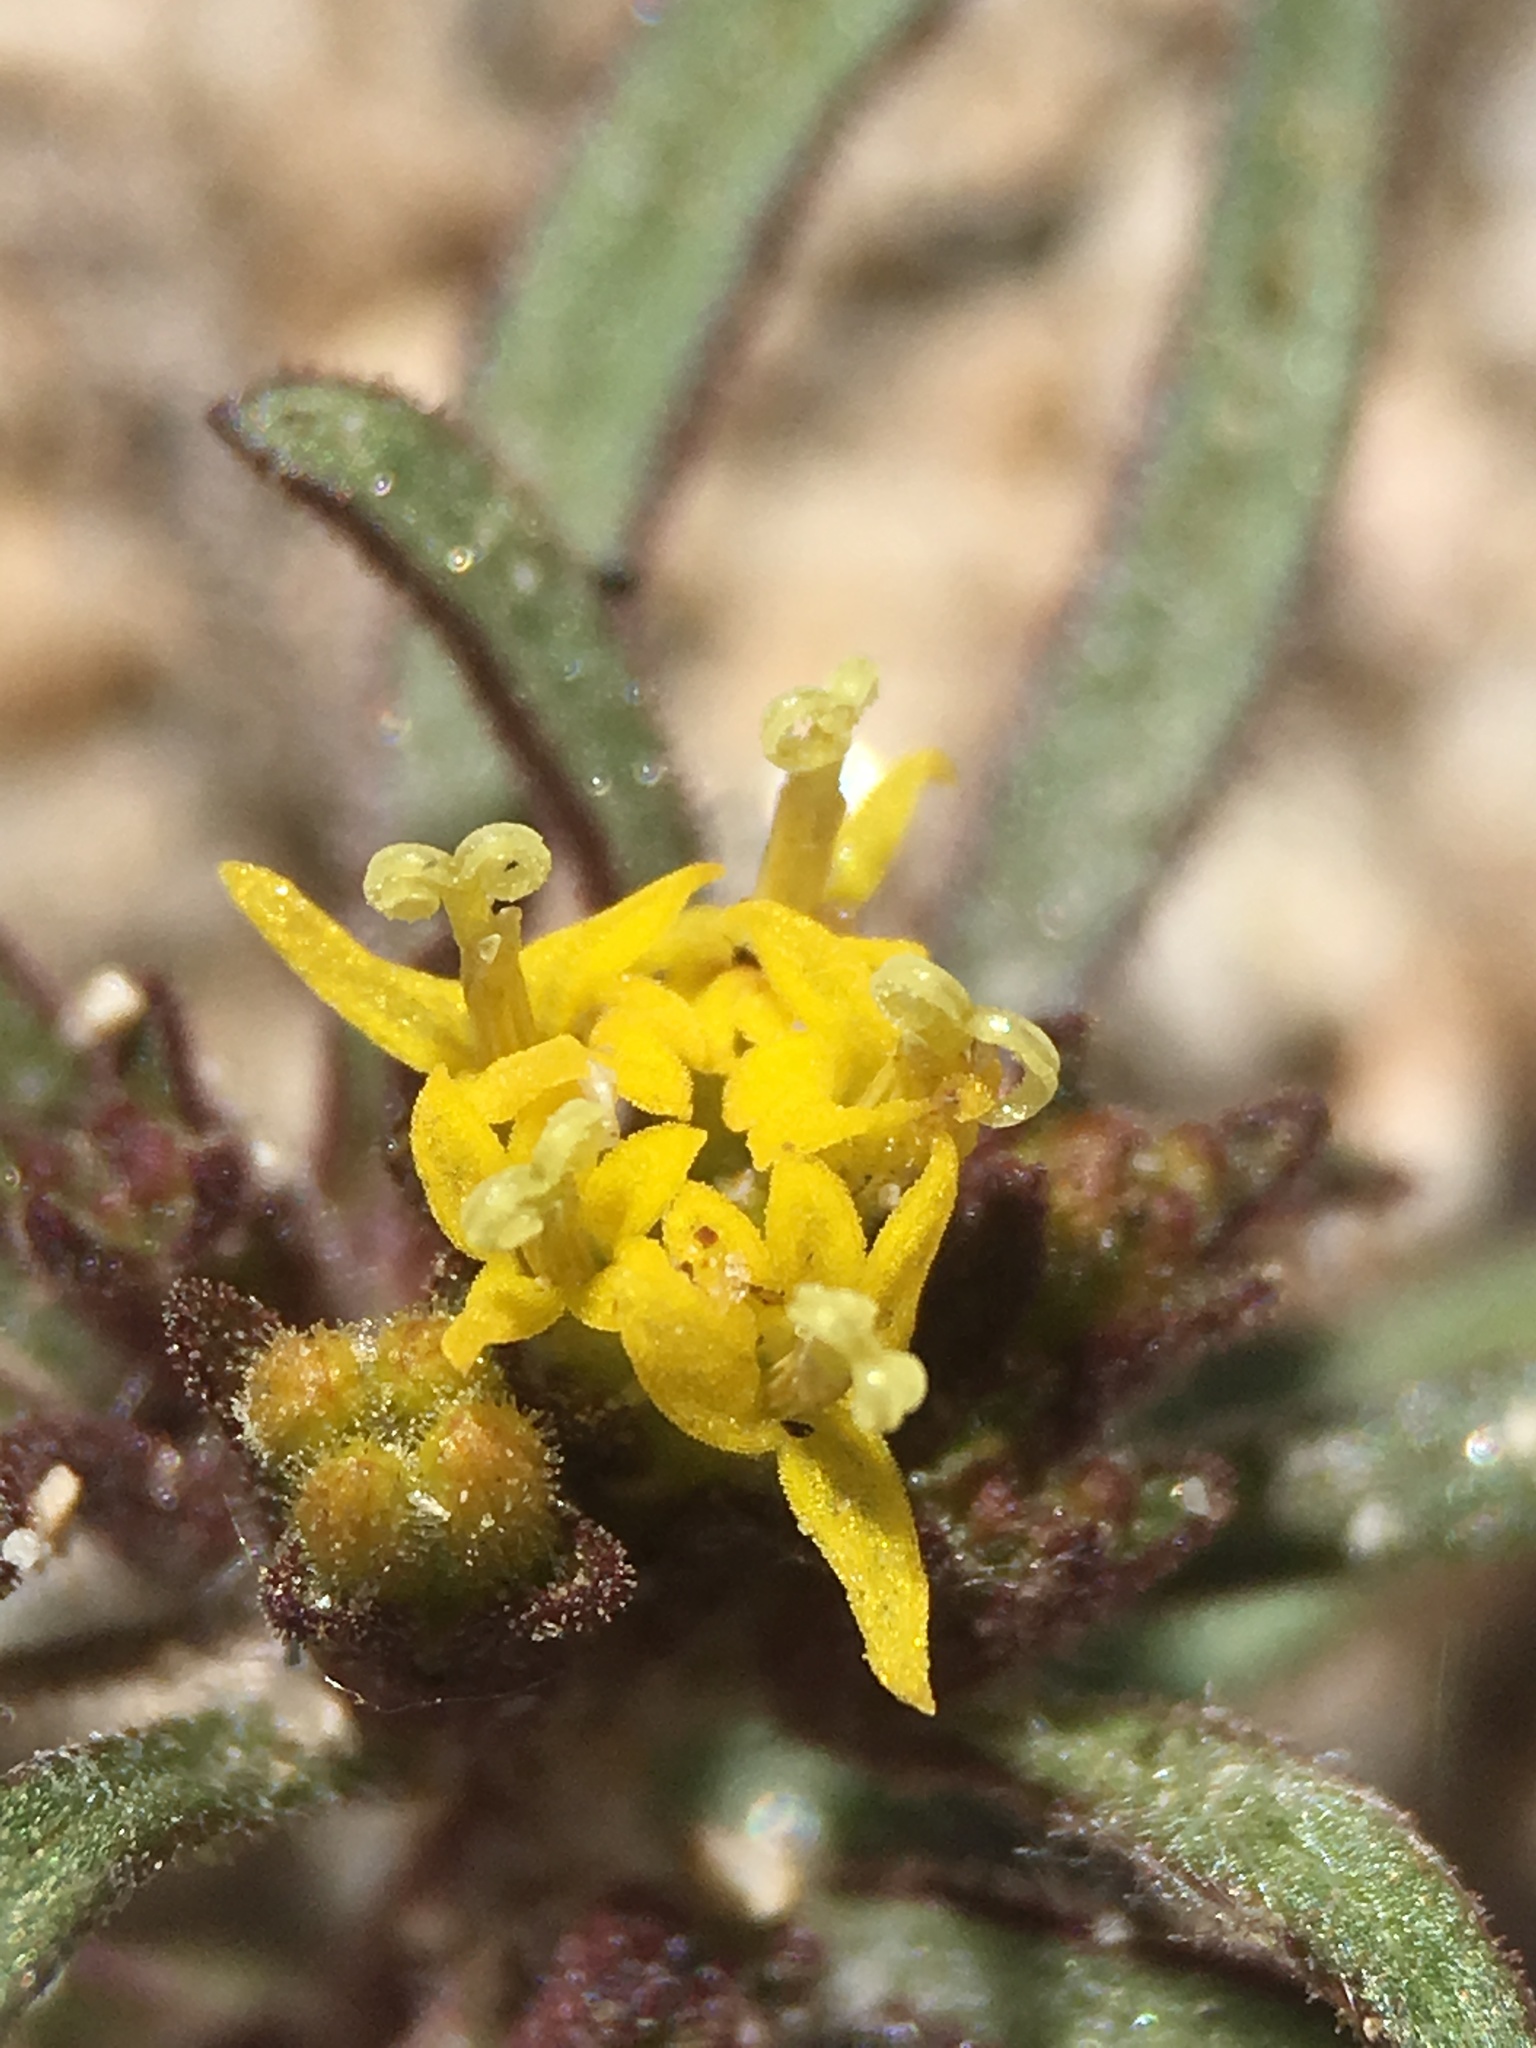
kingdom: Plantae
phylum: Tracheophyta
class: Magnoliopsida
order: Asterales
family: Asteraceae
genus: Orochaenactis
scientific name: Orochaenactis thysanocarpha
